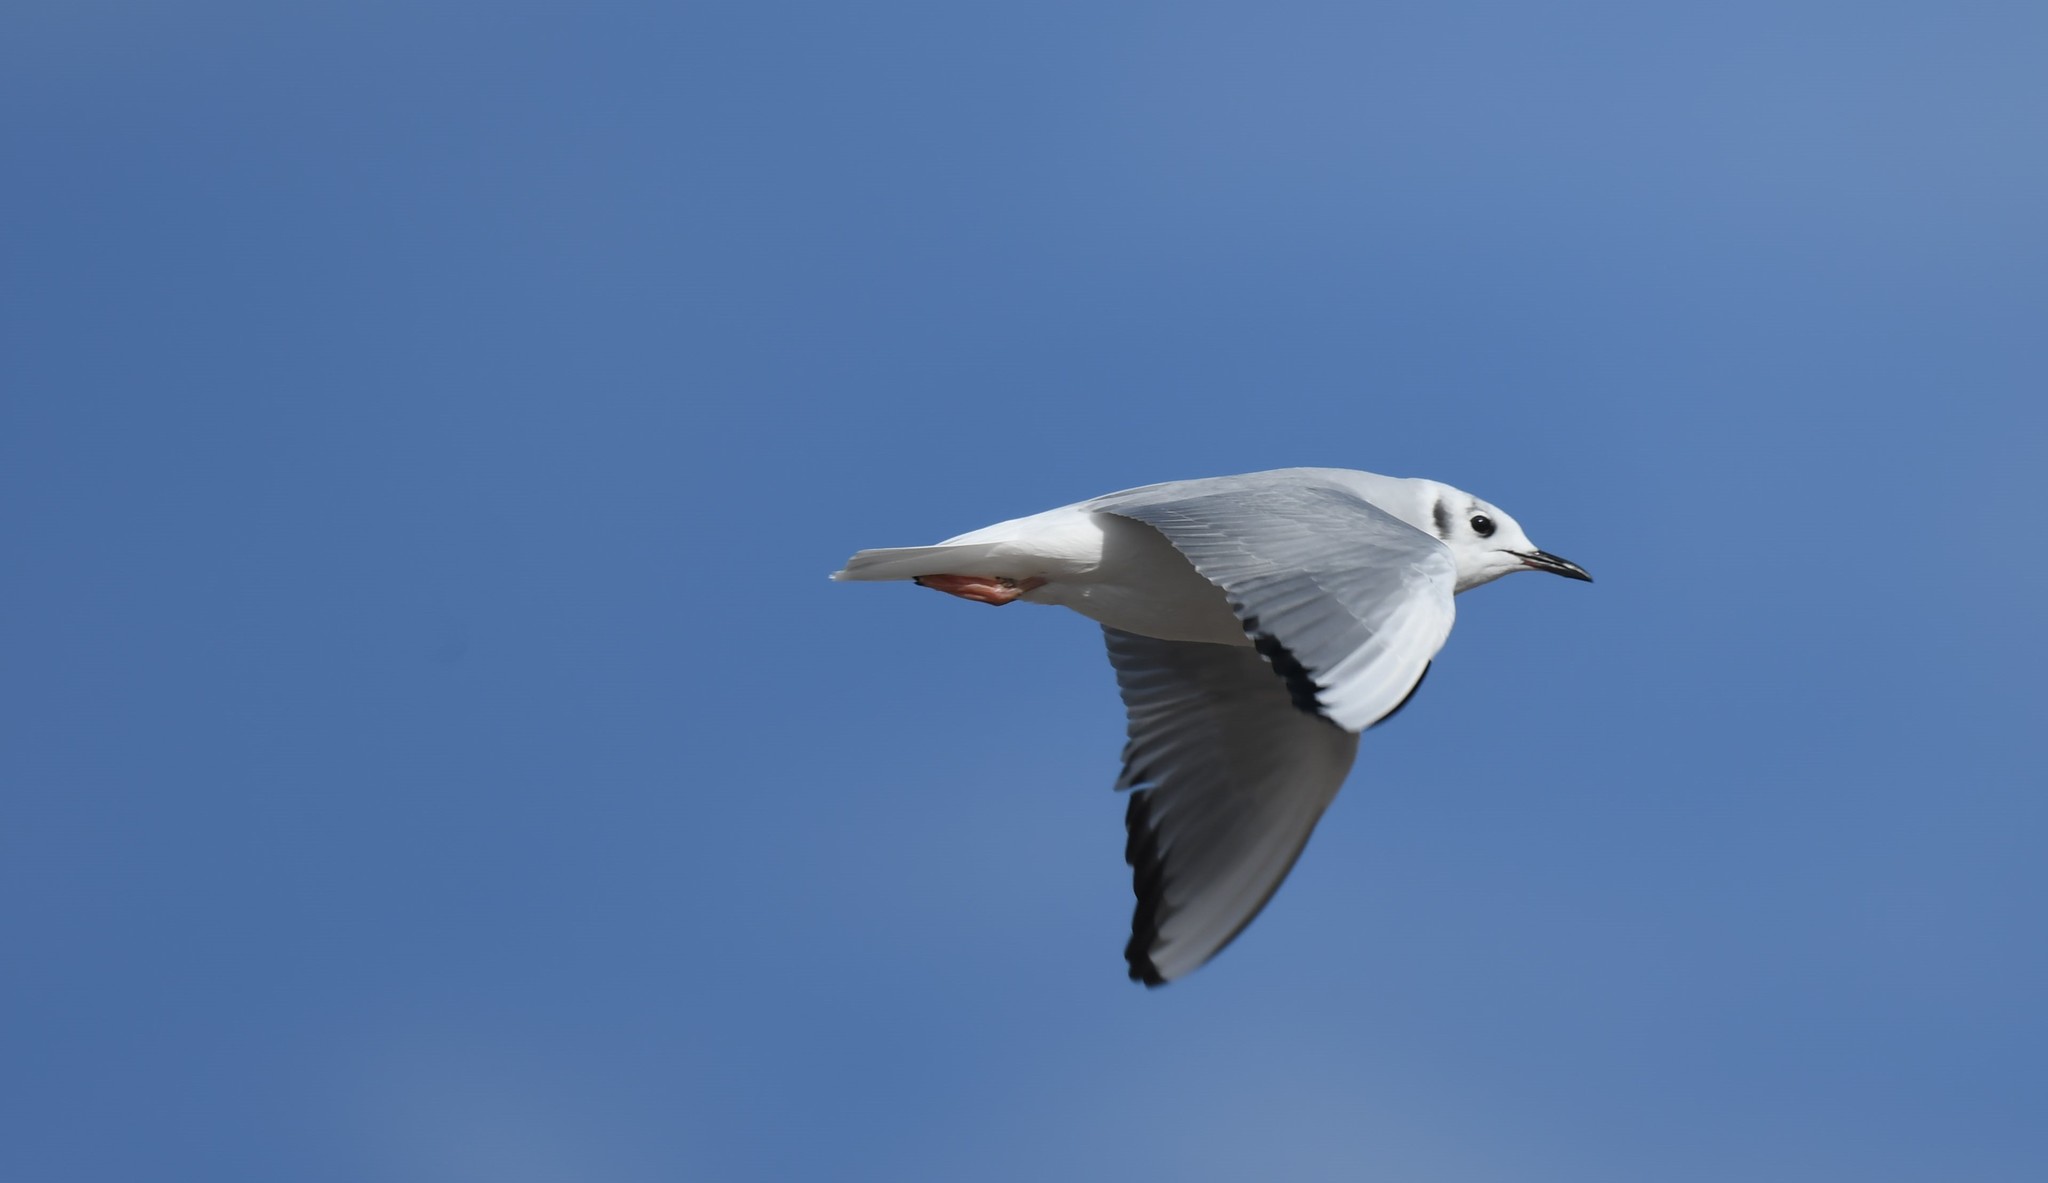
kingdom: Animalia
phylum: Chordata
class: Aves
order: Charadriiformes
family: Laridae
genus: Chroicocephalus
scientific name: Chroicocephalus philadelphia
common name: Bonaparte's gull
